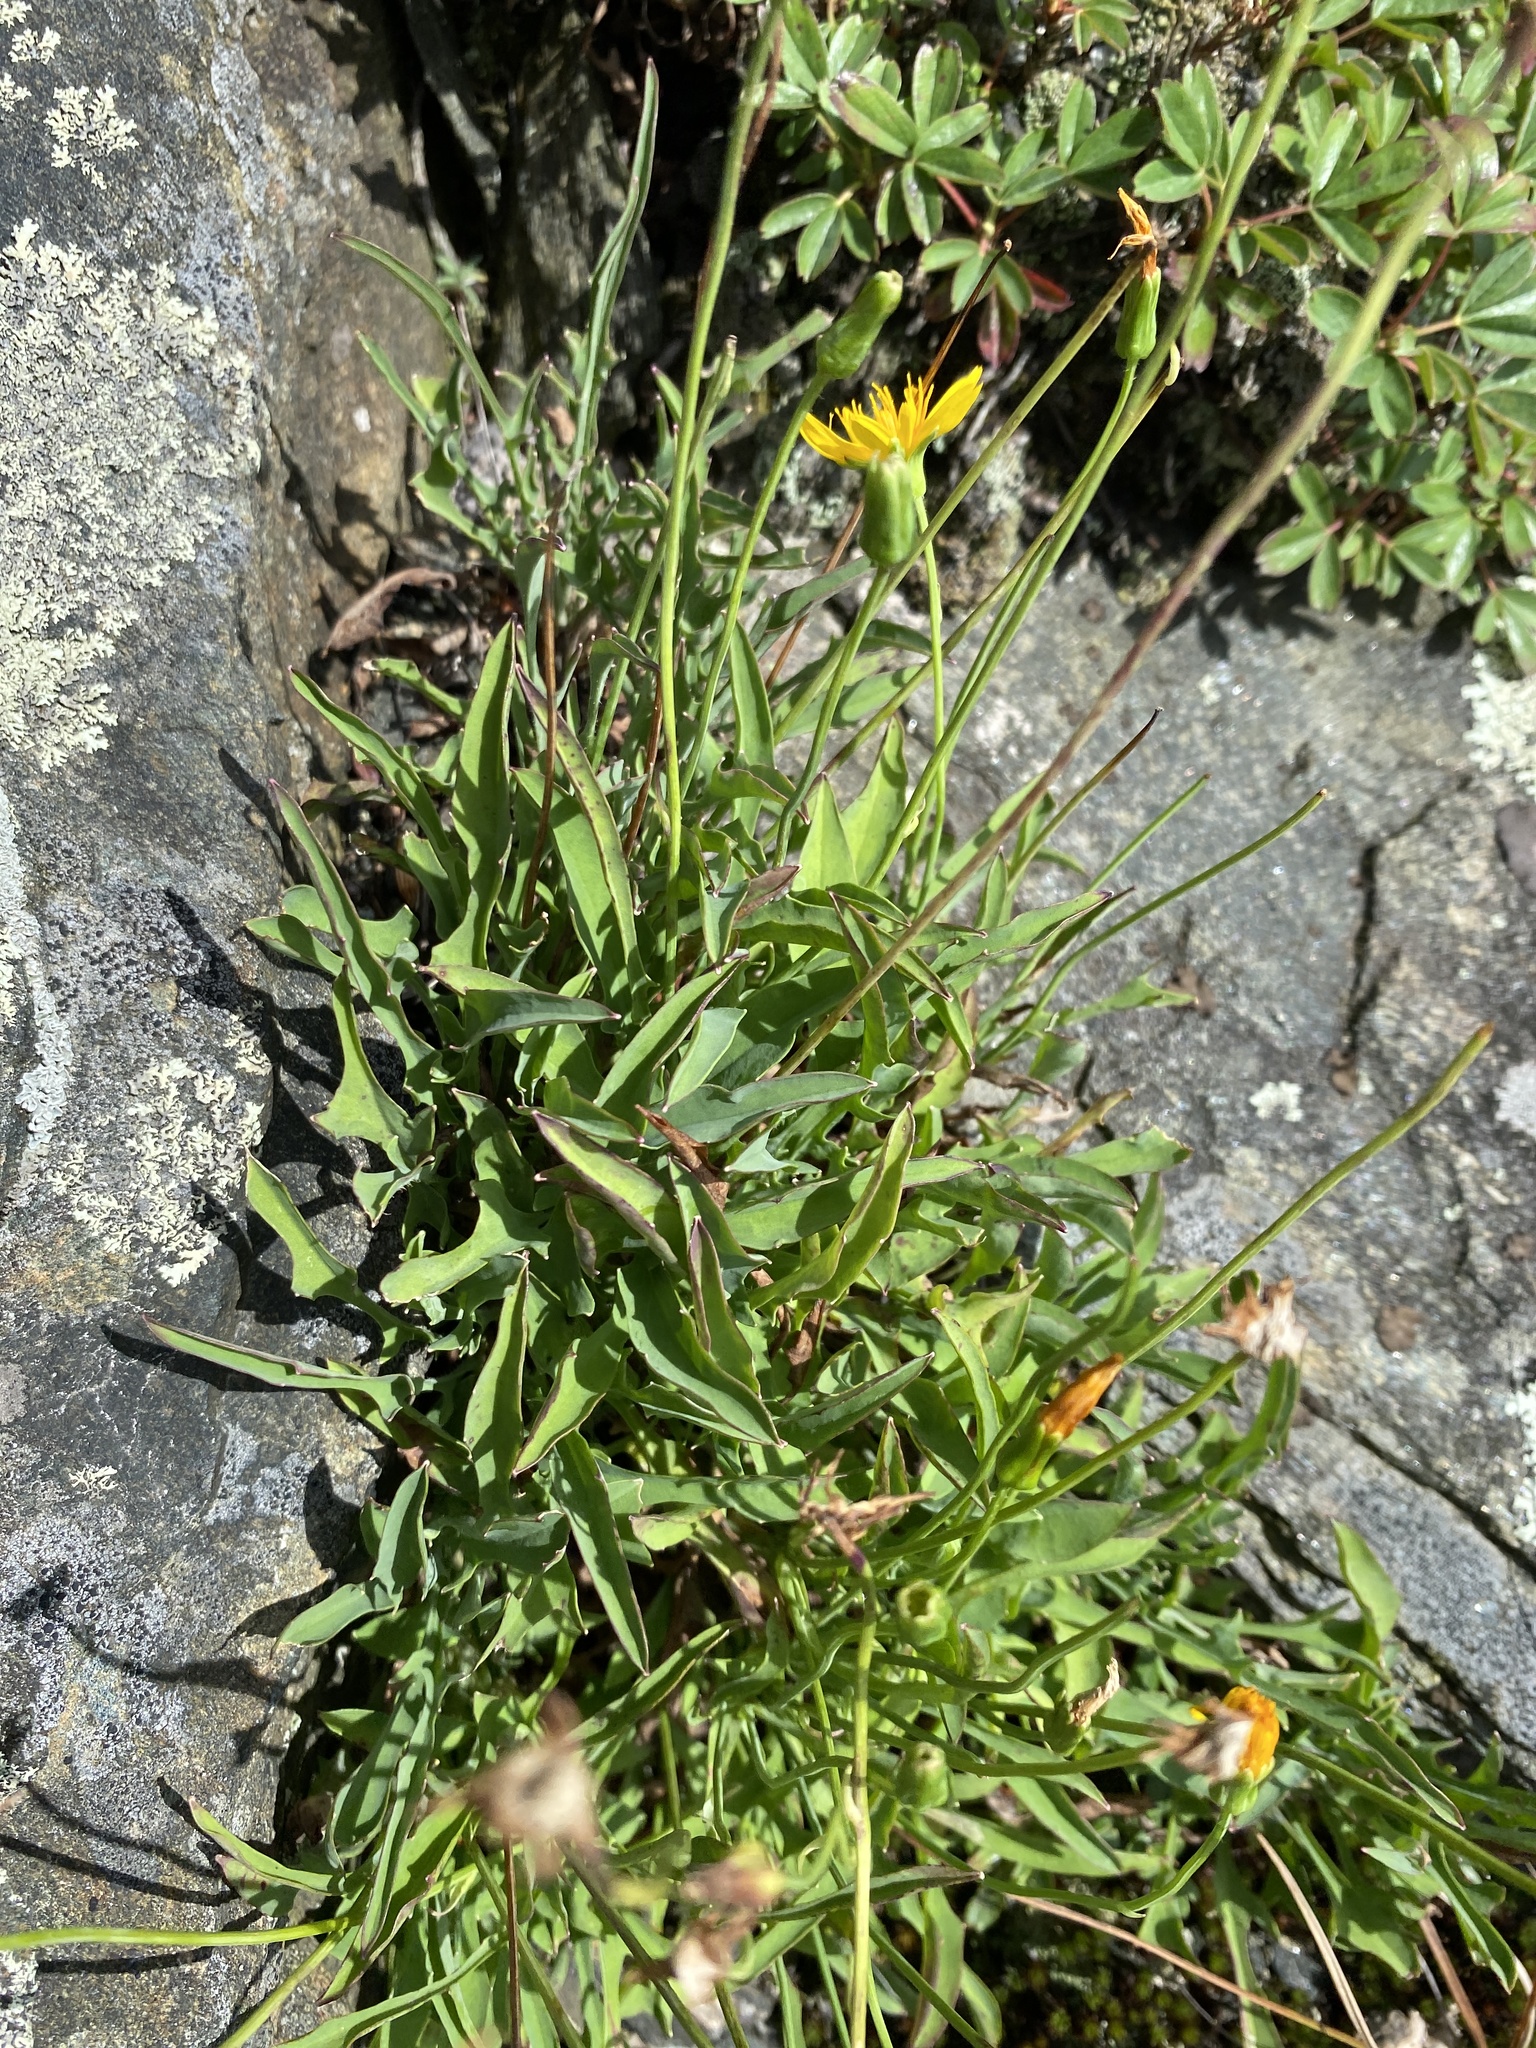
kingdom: Plantae
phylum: Tracheophyta
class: Magnoliopsida
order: Asterales
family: Asteraceae
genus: Krigia
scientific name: Krigia montana
